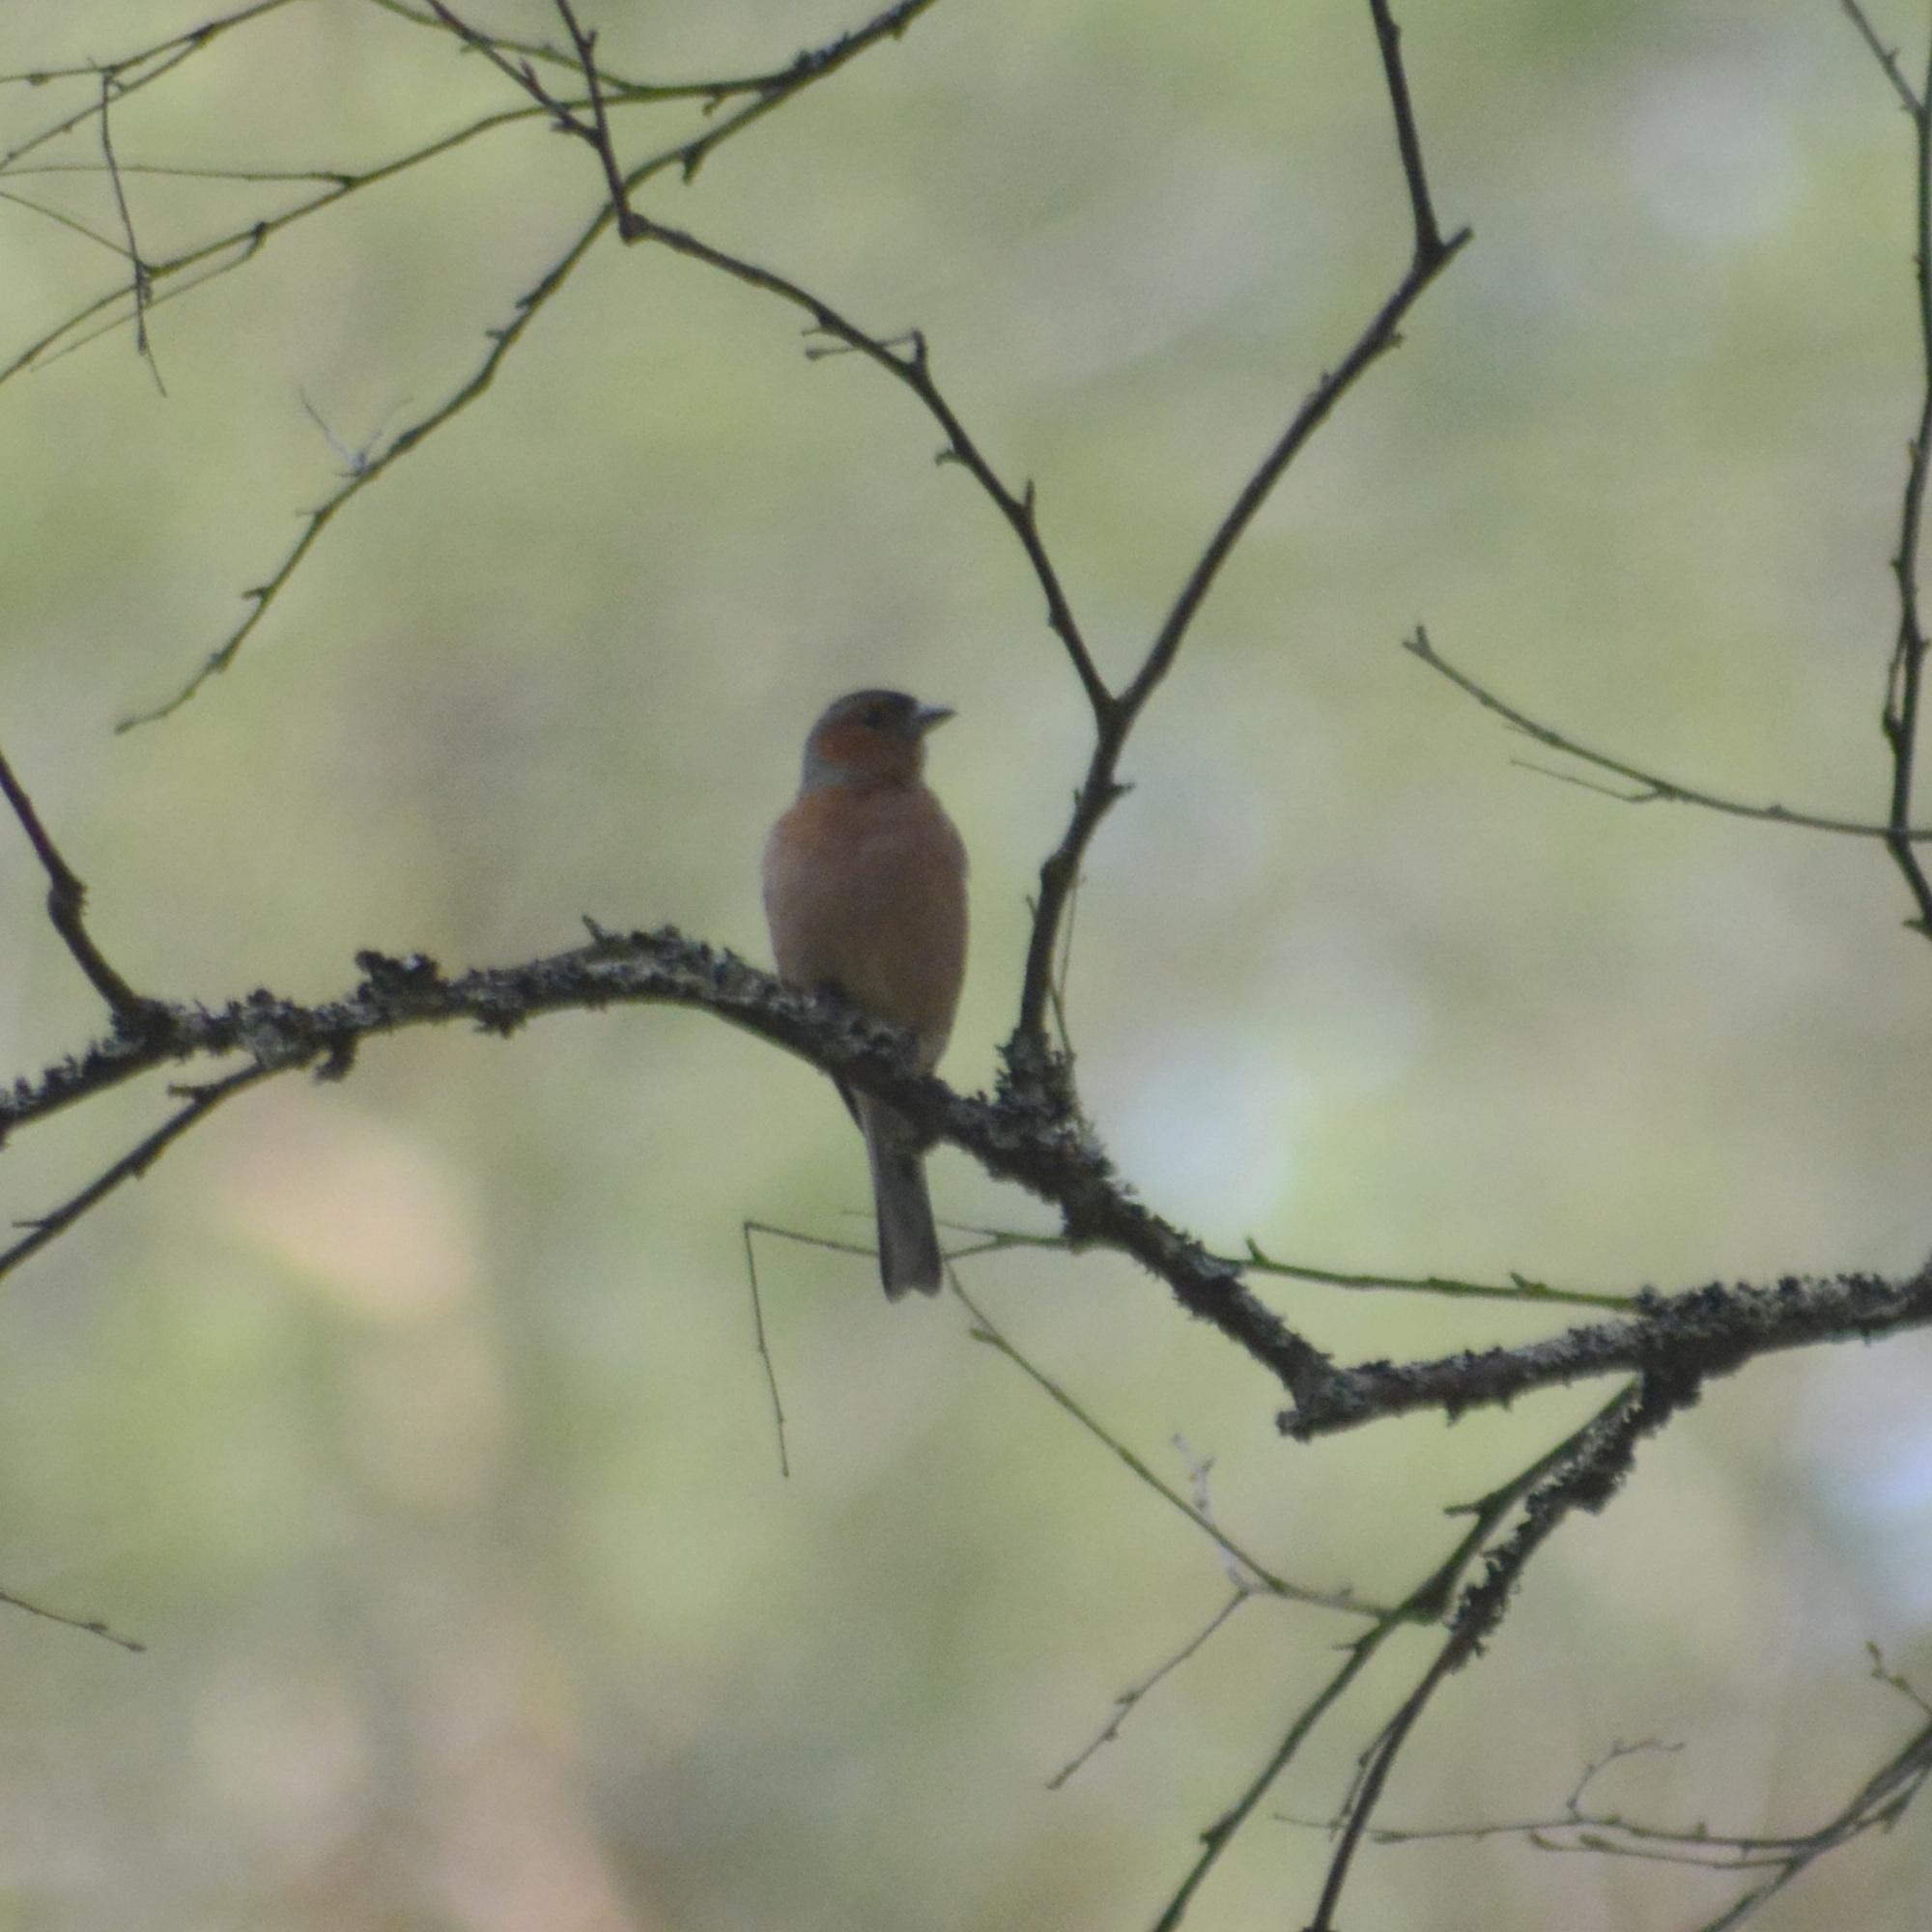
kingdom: Animalia
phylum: Chordata
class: Aves
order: Passeriformes
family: Fringillidae
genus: Fringilla
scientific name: Fringilla coelebs
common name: Common chaffinch
